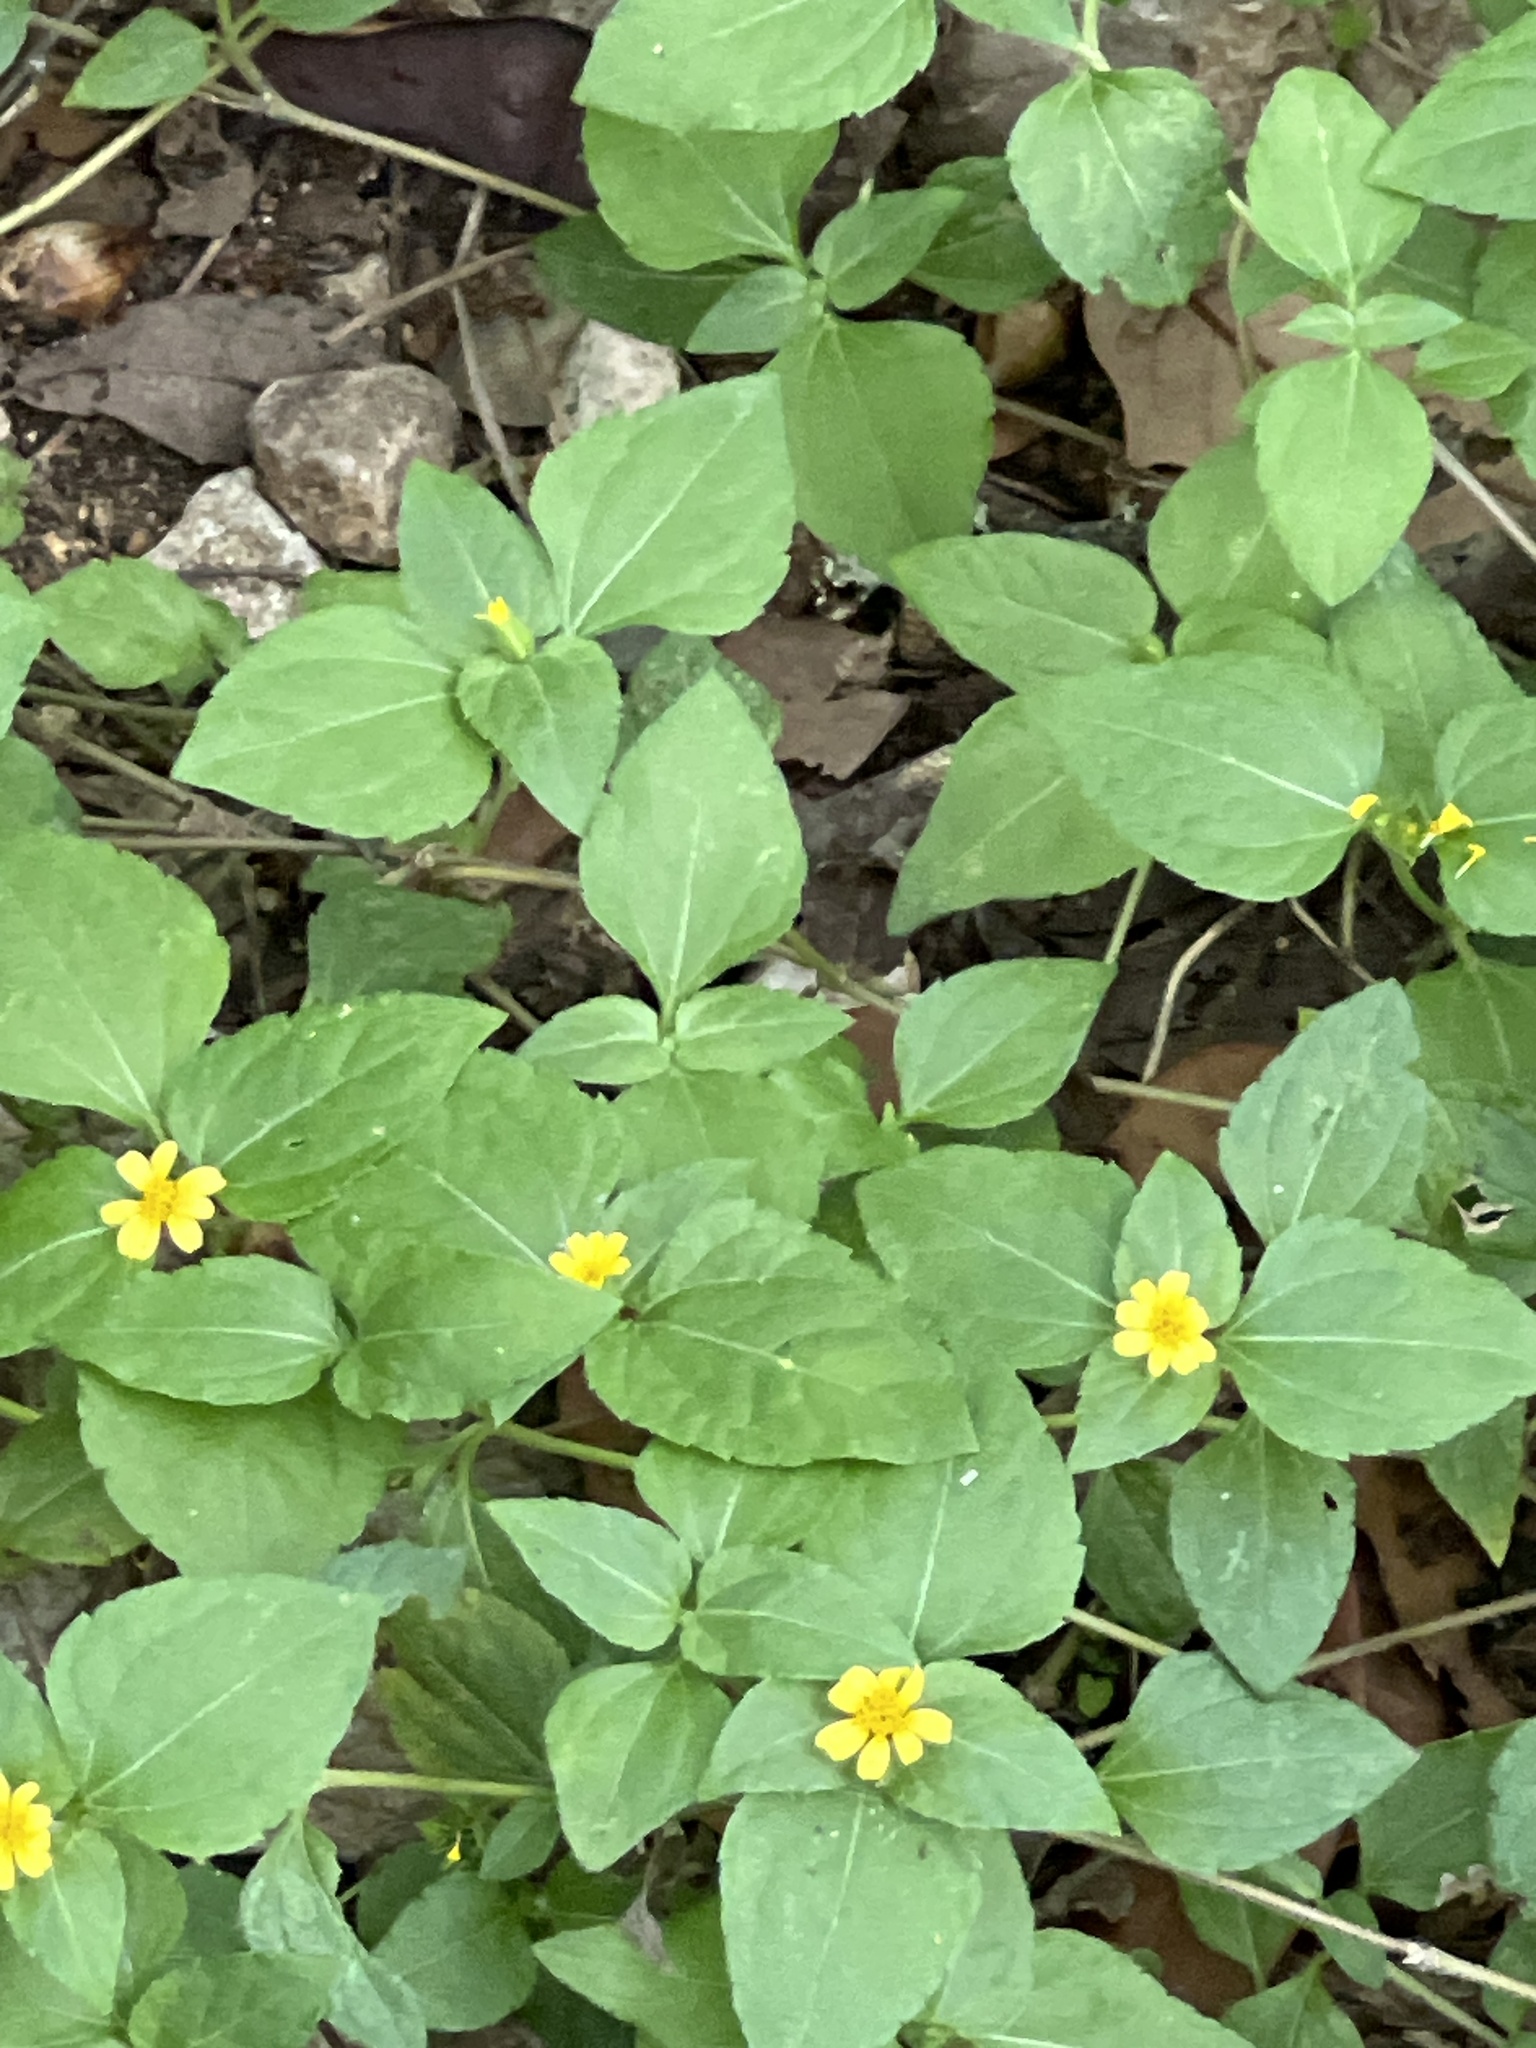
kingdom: Plantae
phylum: Tracheophyta
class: Magnoliopsida
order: Asterales
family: Asteraceae
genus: Calyptocarpus
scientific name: Calyptocarpus vialis
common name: Straggler daisy
